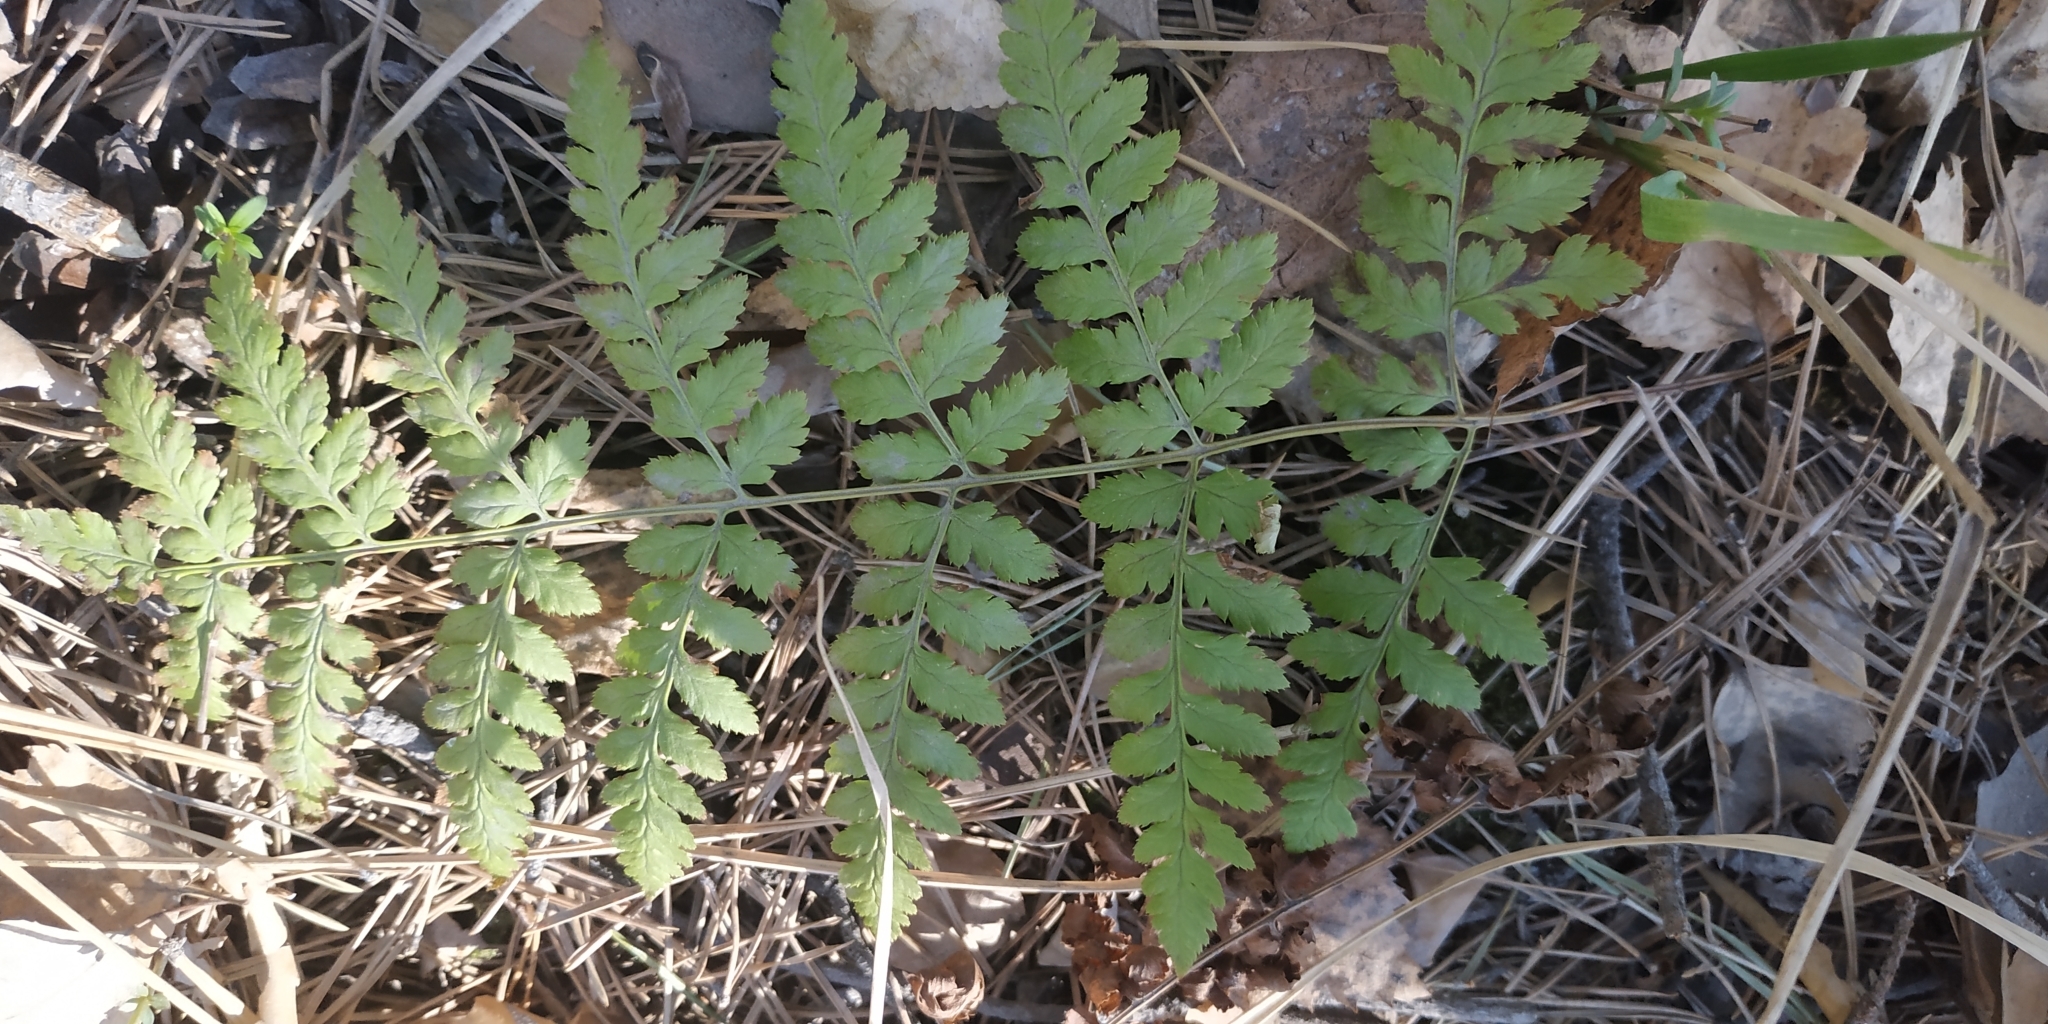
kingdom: Plantae
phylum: Tracheophyta
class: Polypodiopsida
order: Polypodiales
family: Dryopteridaceae
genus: Dryopteris
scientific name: Dryopteris carthusiana
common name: Narrow buckler-fern
